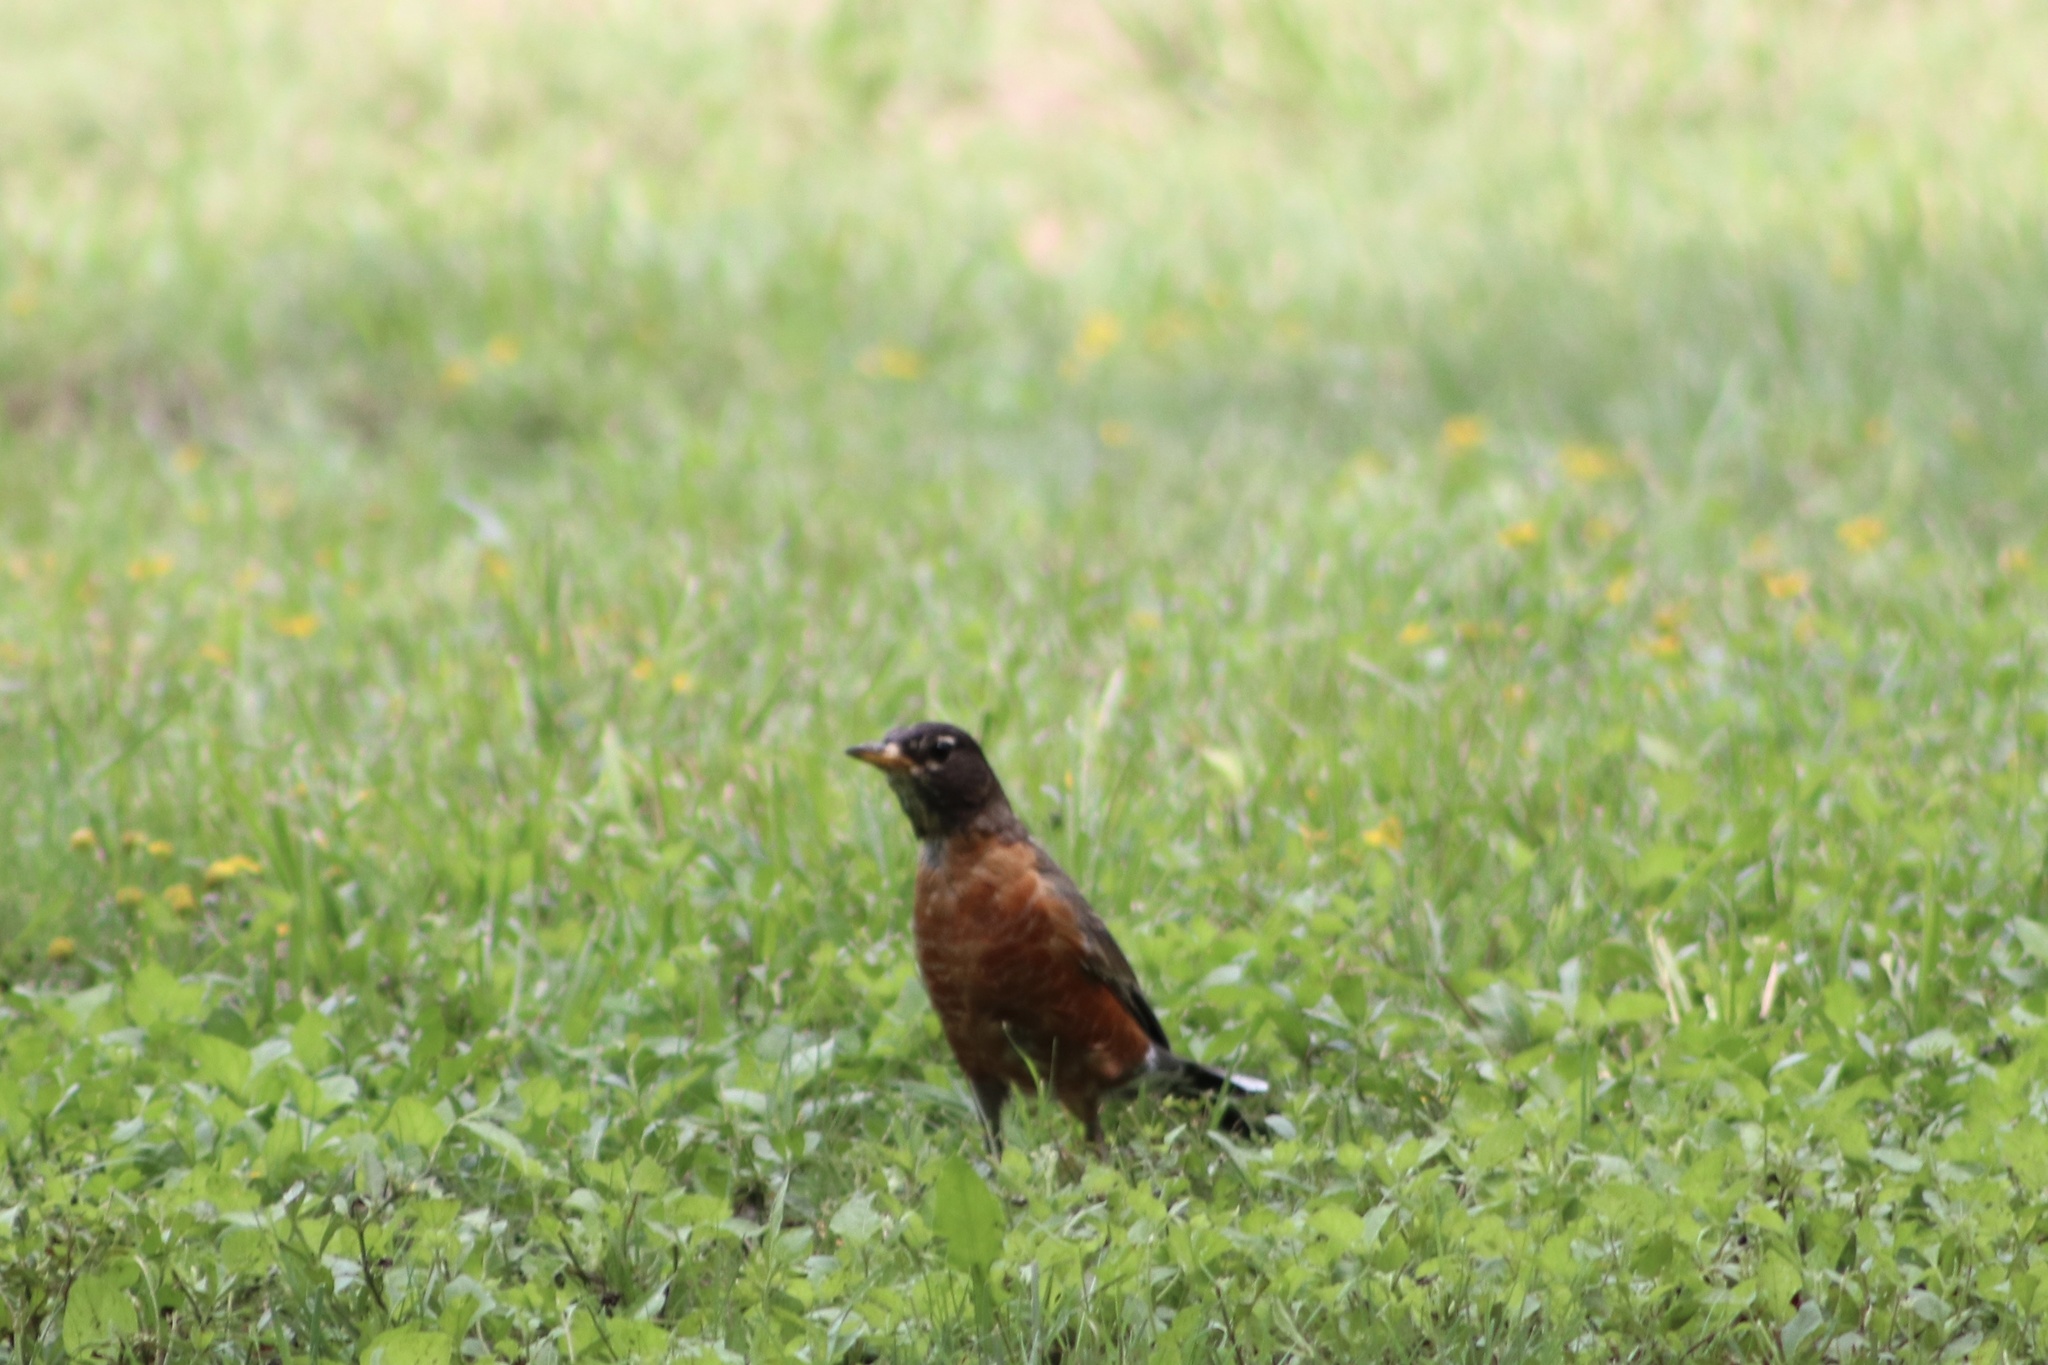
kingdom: Animalia
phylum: Chordata
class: Aves
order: Passeriformes
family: Turdidae
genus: Turdus
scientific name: Turdus migratorius
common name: American robin
